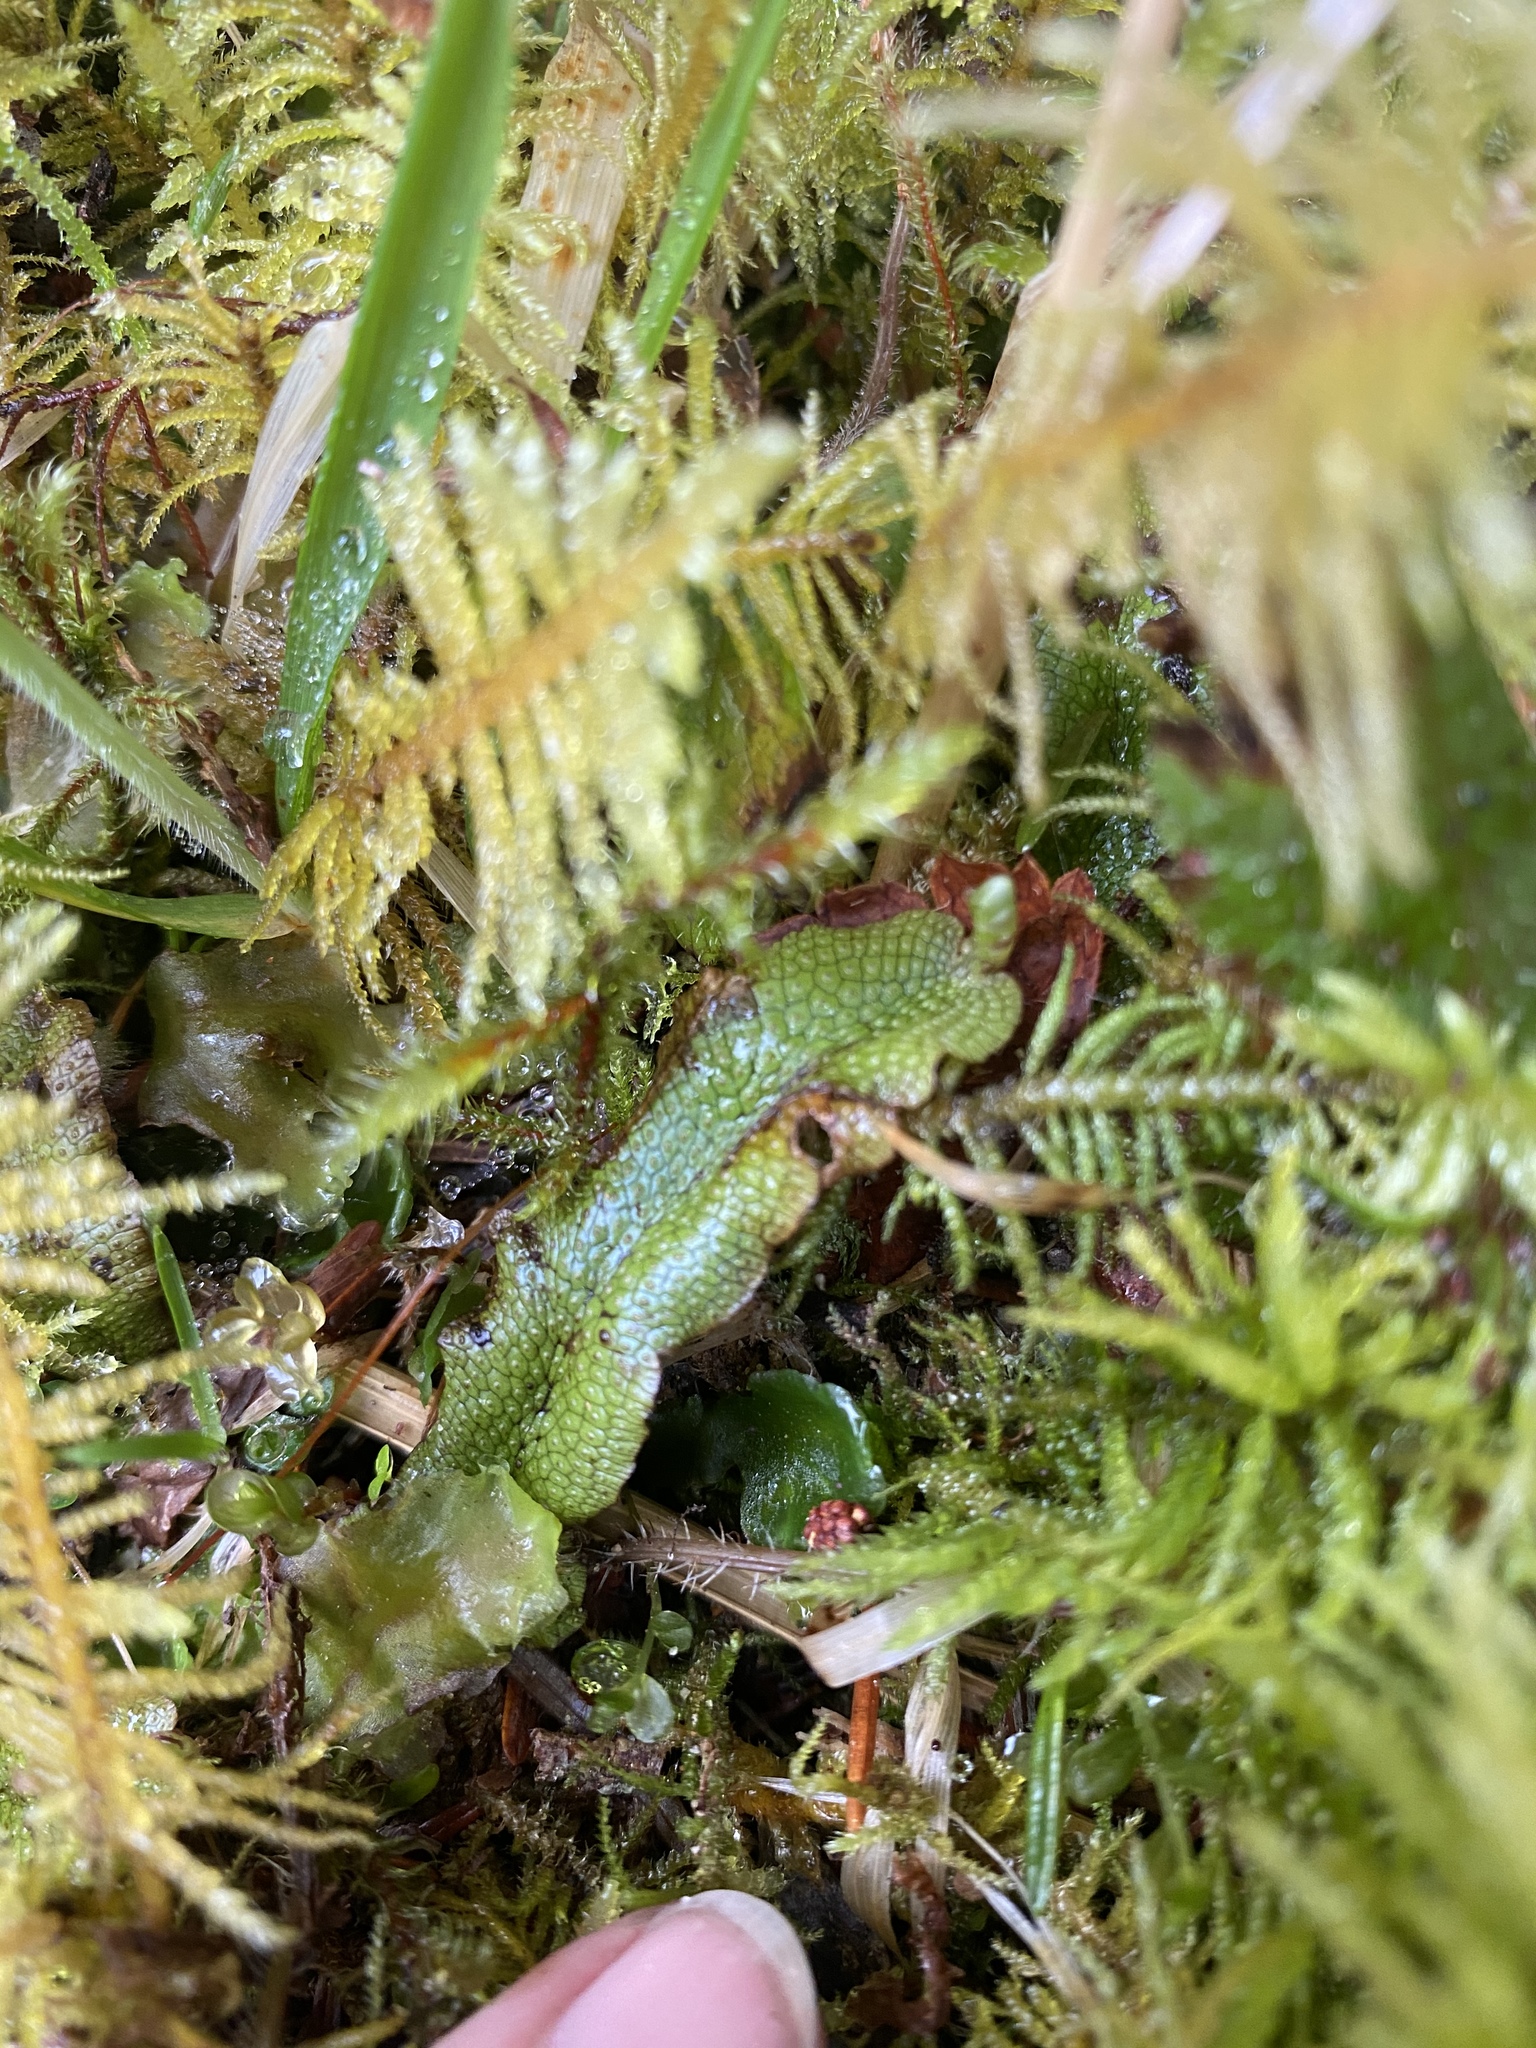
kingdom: Plantae
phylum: Marchantiophyta
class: Marchantiopsida
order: Marchantiales
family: Conocephalaceae
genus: Conocephalum
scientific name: Conocephalum salebrosum
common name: Cat-tongue liverwort
